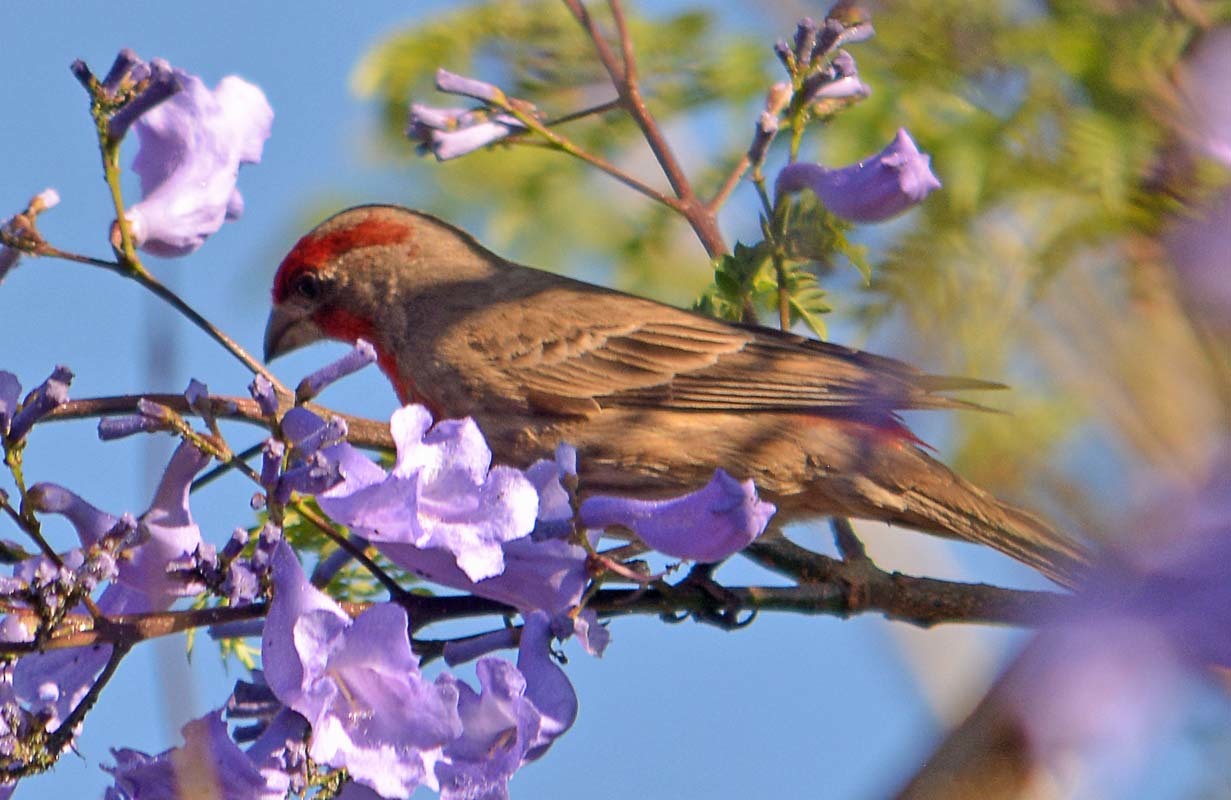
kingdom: Animalia
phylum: Chordata
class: Aves
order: Passeriformes
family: Fringillidae
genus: Haemorhous
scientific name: Haemorhous mexicanus
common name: House finch
